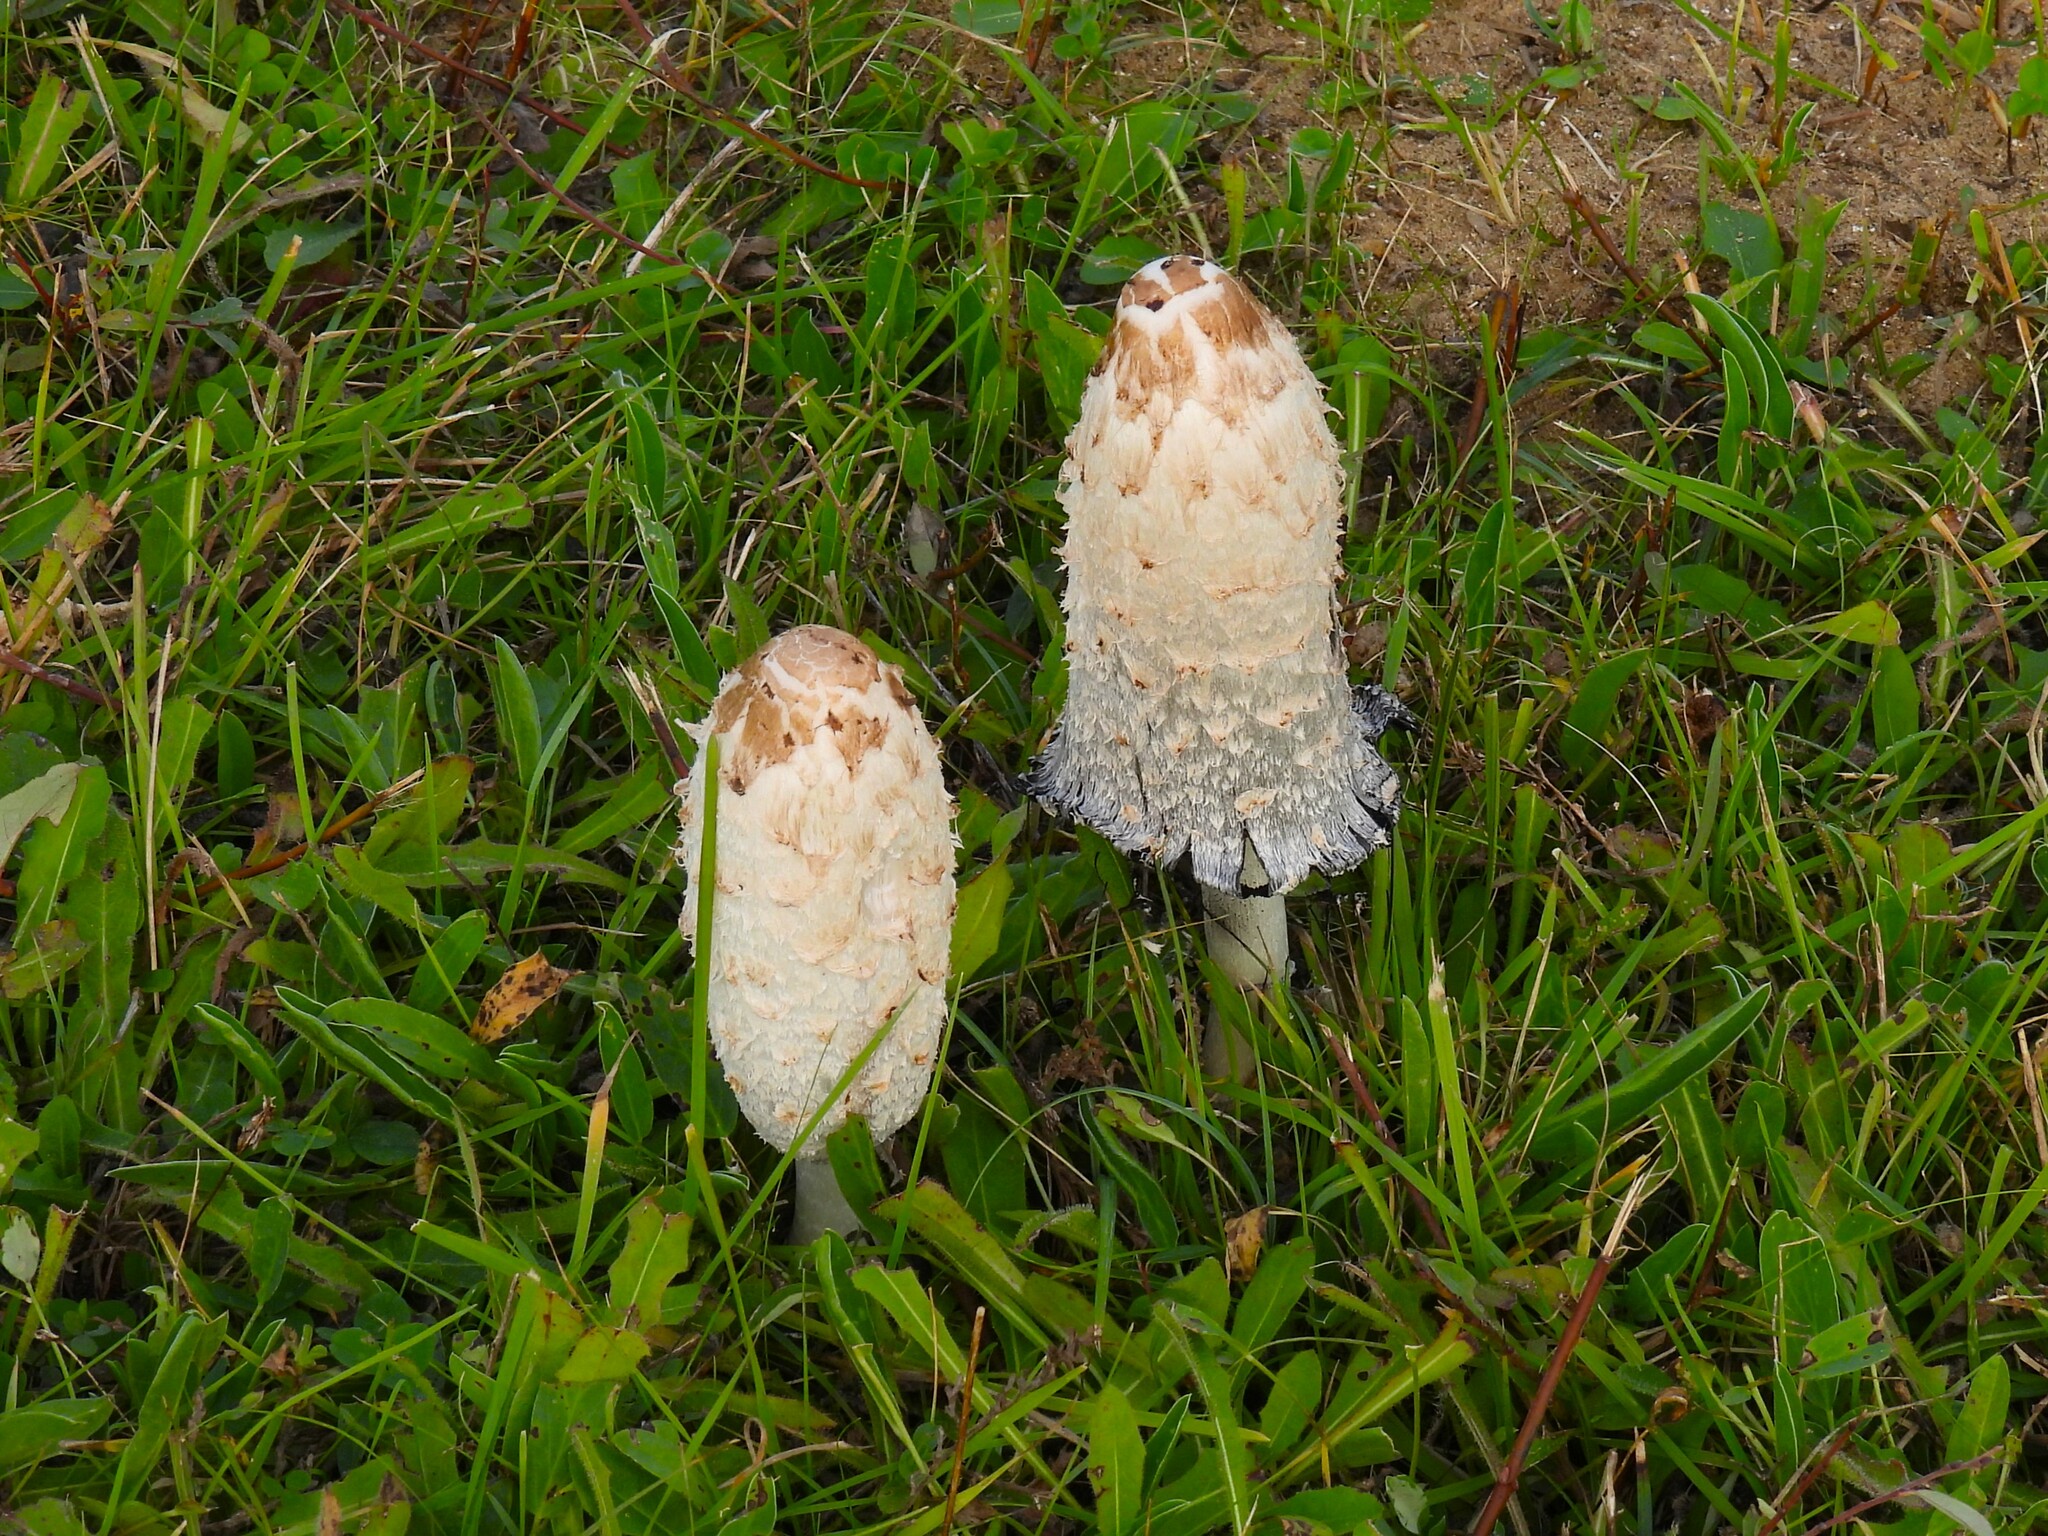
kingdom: Fungi
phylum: Basidiomycota
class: Agaricomycetes
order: Agaricales
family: Agaricaceae
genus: Coprinus
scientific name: Coprinus comatus
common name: Lawyer's wig
